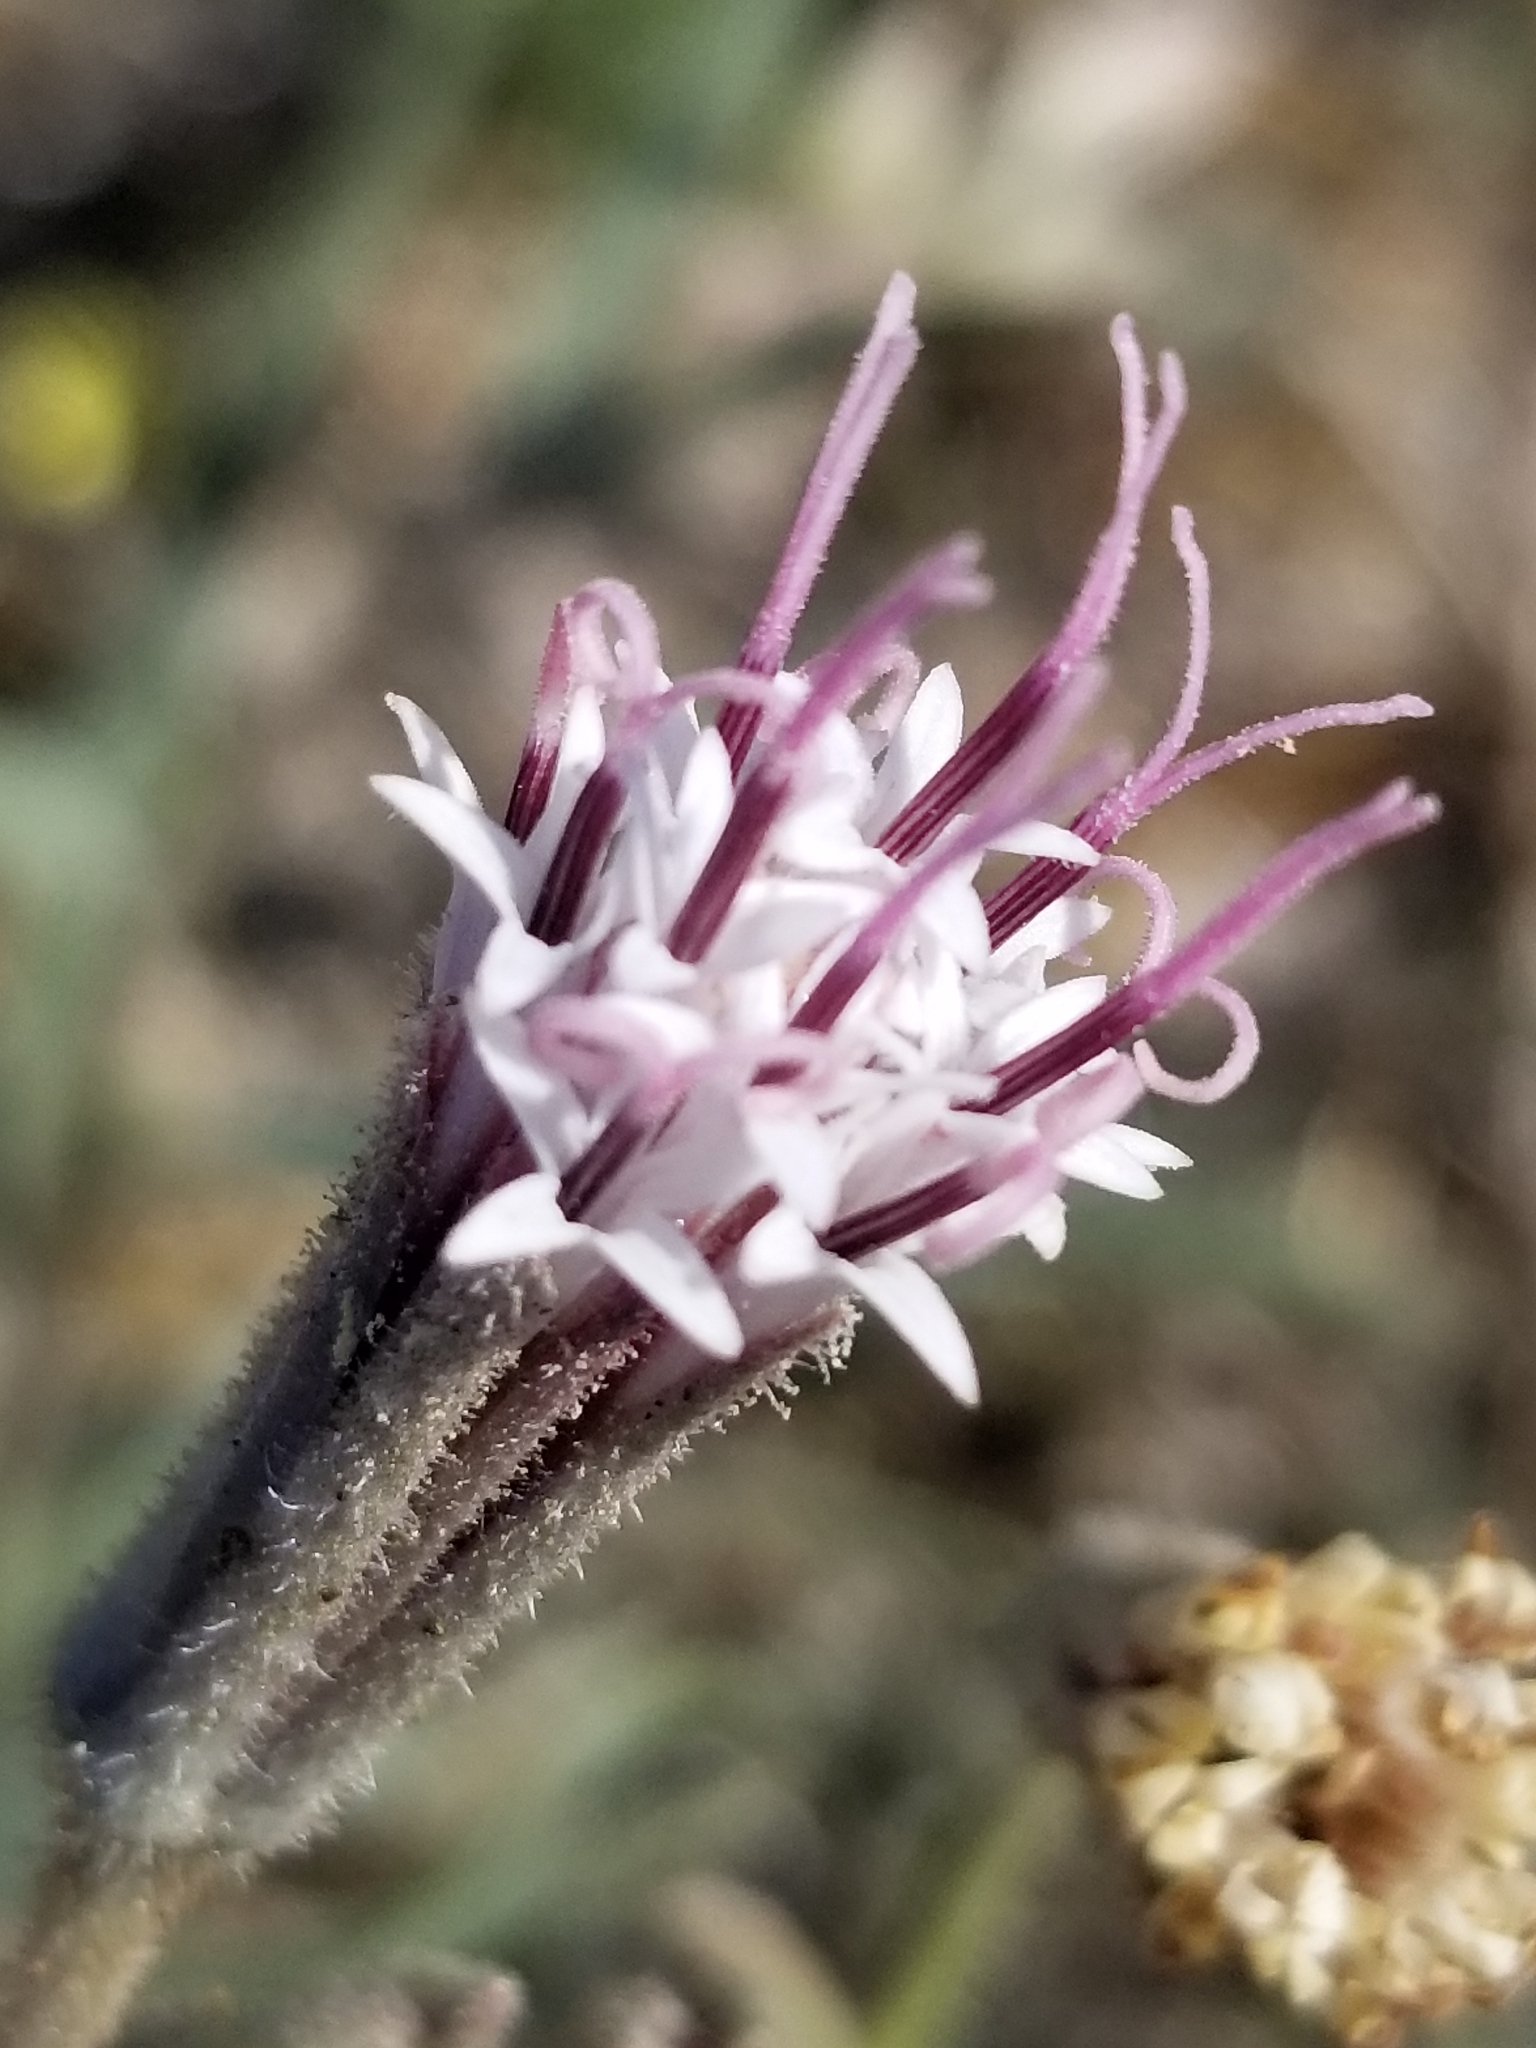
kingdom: Plantae
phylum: Tracheophyta
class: Magnoliopsida
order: Asterales
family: Asteraceae
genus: Palafoxia
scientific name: Palafoxia arida
